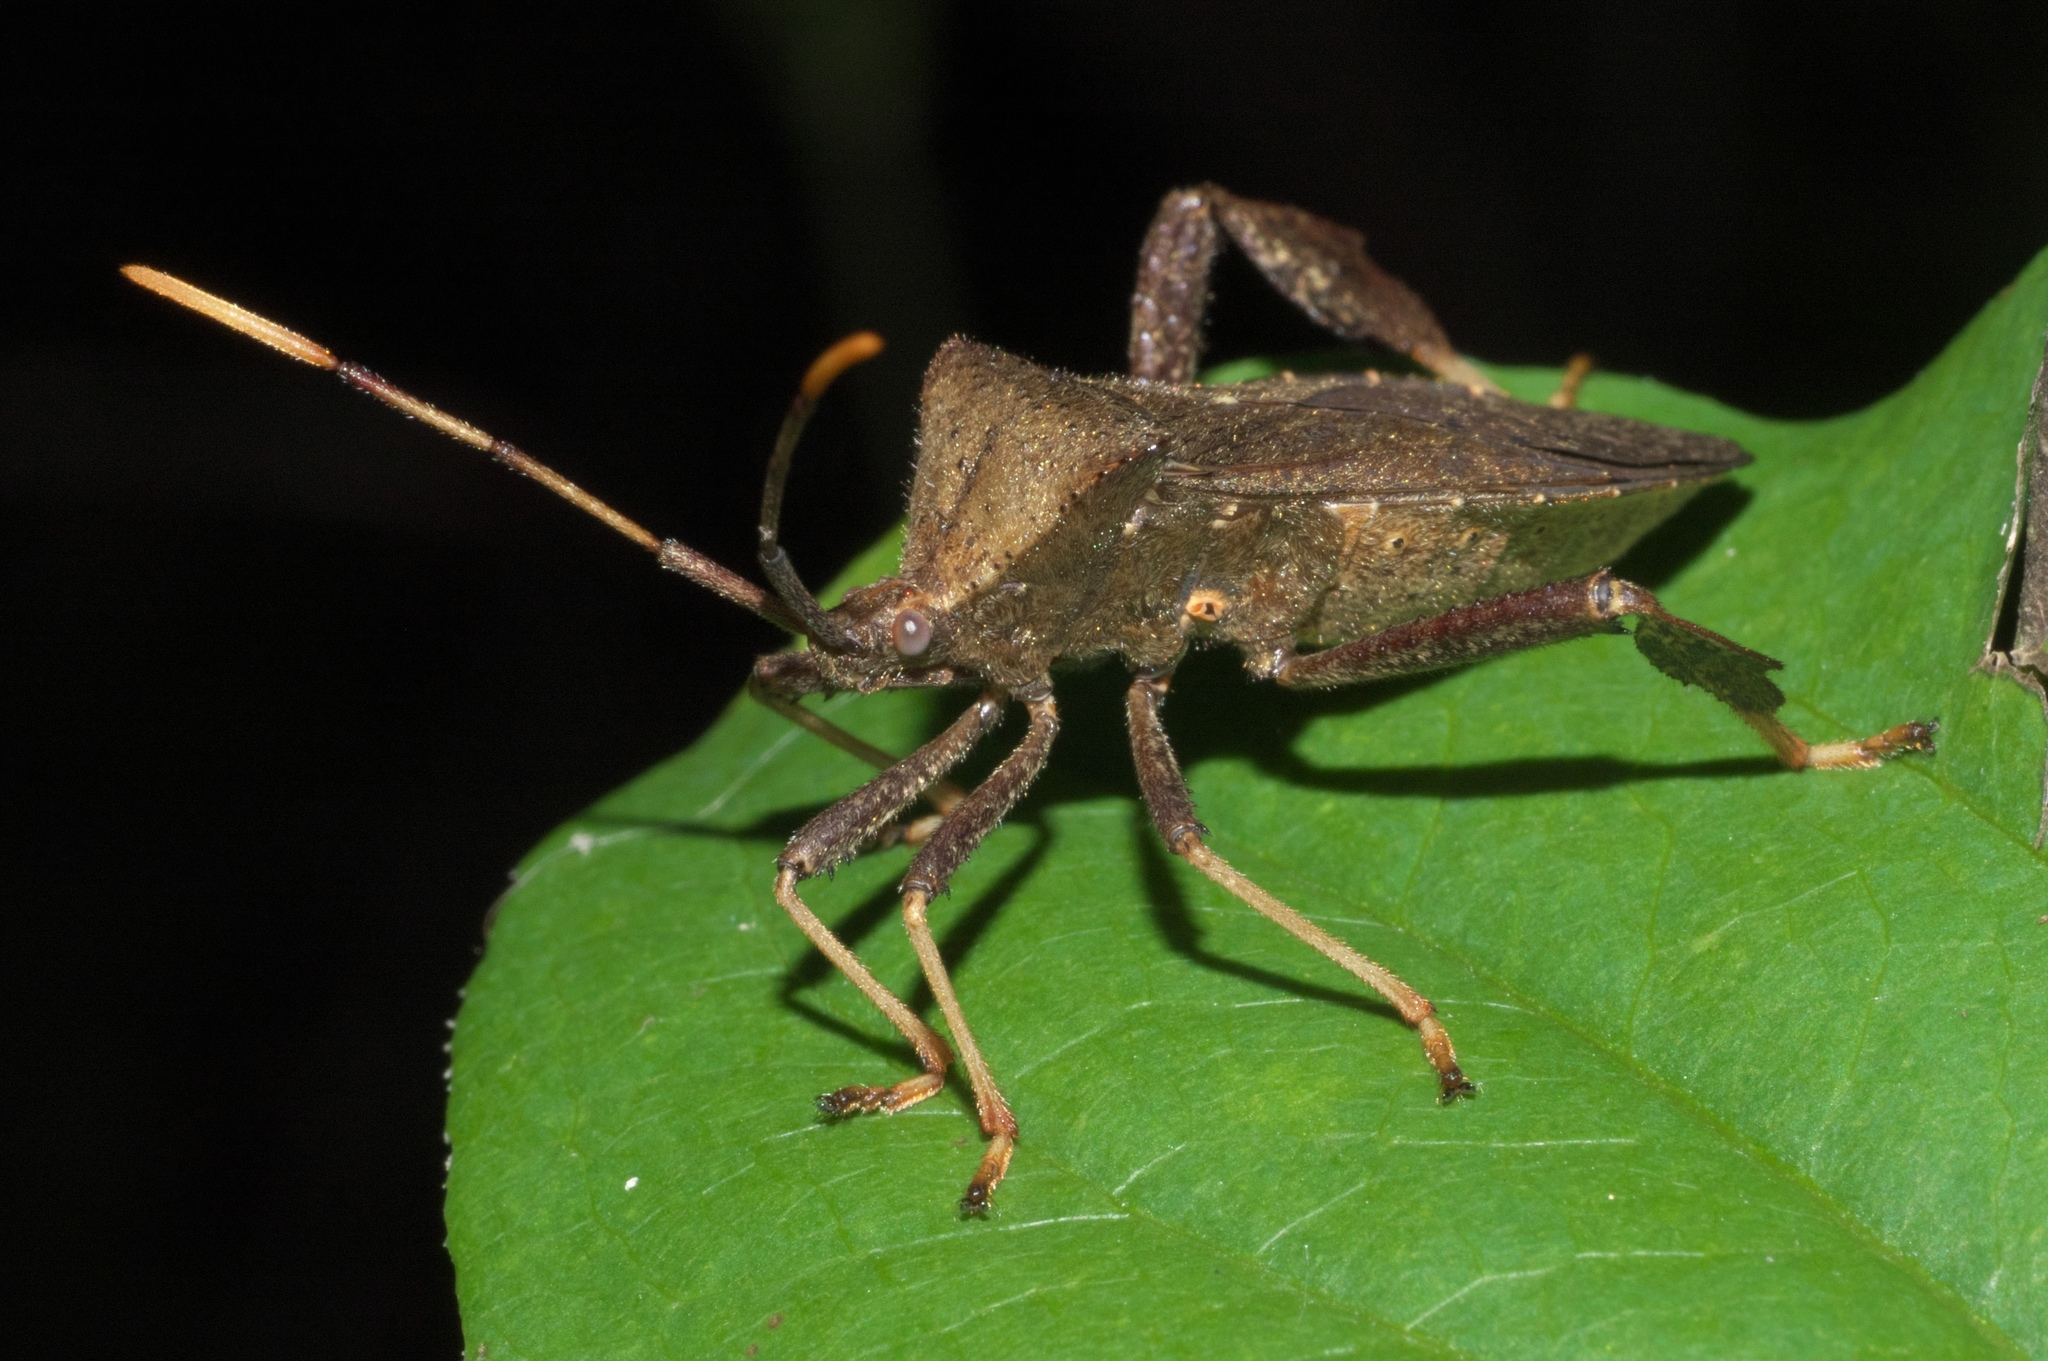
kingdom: Animalia
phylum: Arthropoda
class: Insecta
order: Hemiptera
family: Coreidae
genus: Acanthocephala
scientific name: Acanthocephala terminalis
